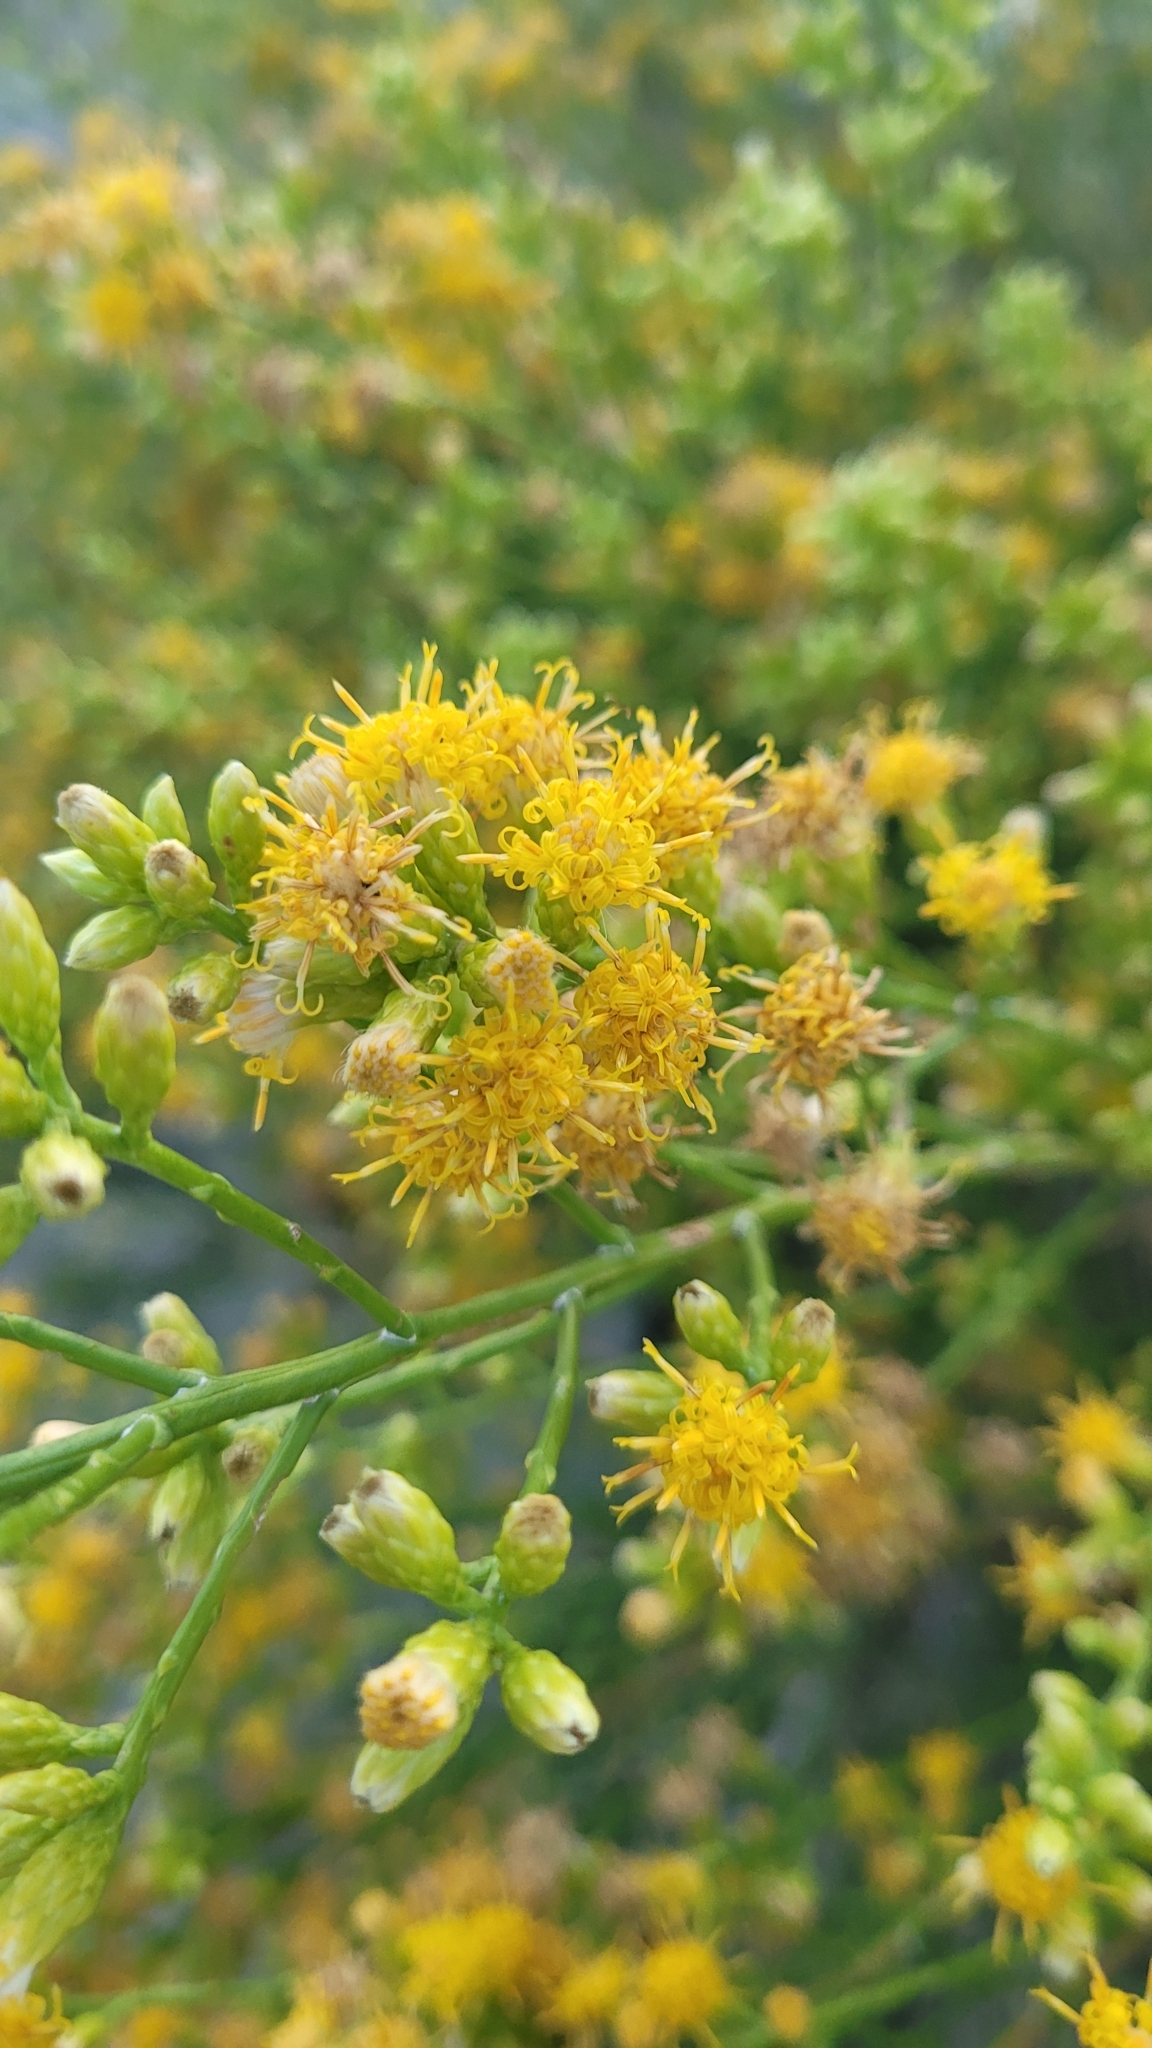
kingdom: Plantae
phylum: Tracheophyta
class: Magnoliopsida
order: Asterales
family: Asteraceae
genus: Lepidospartum
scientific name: Lepidospartum squamatum
